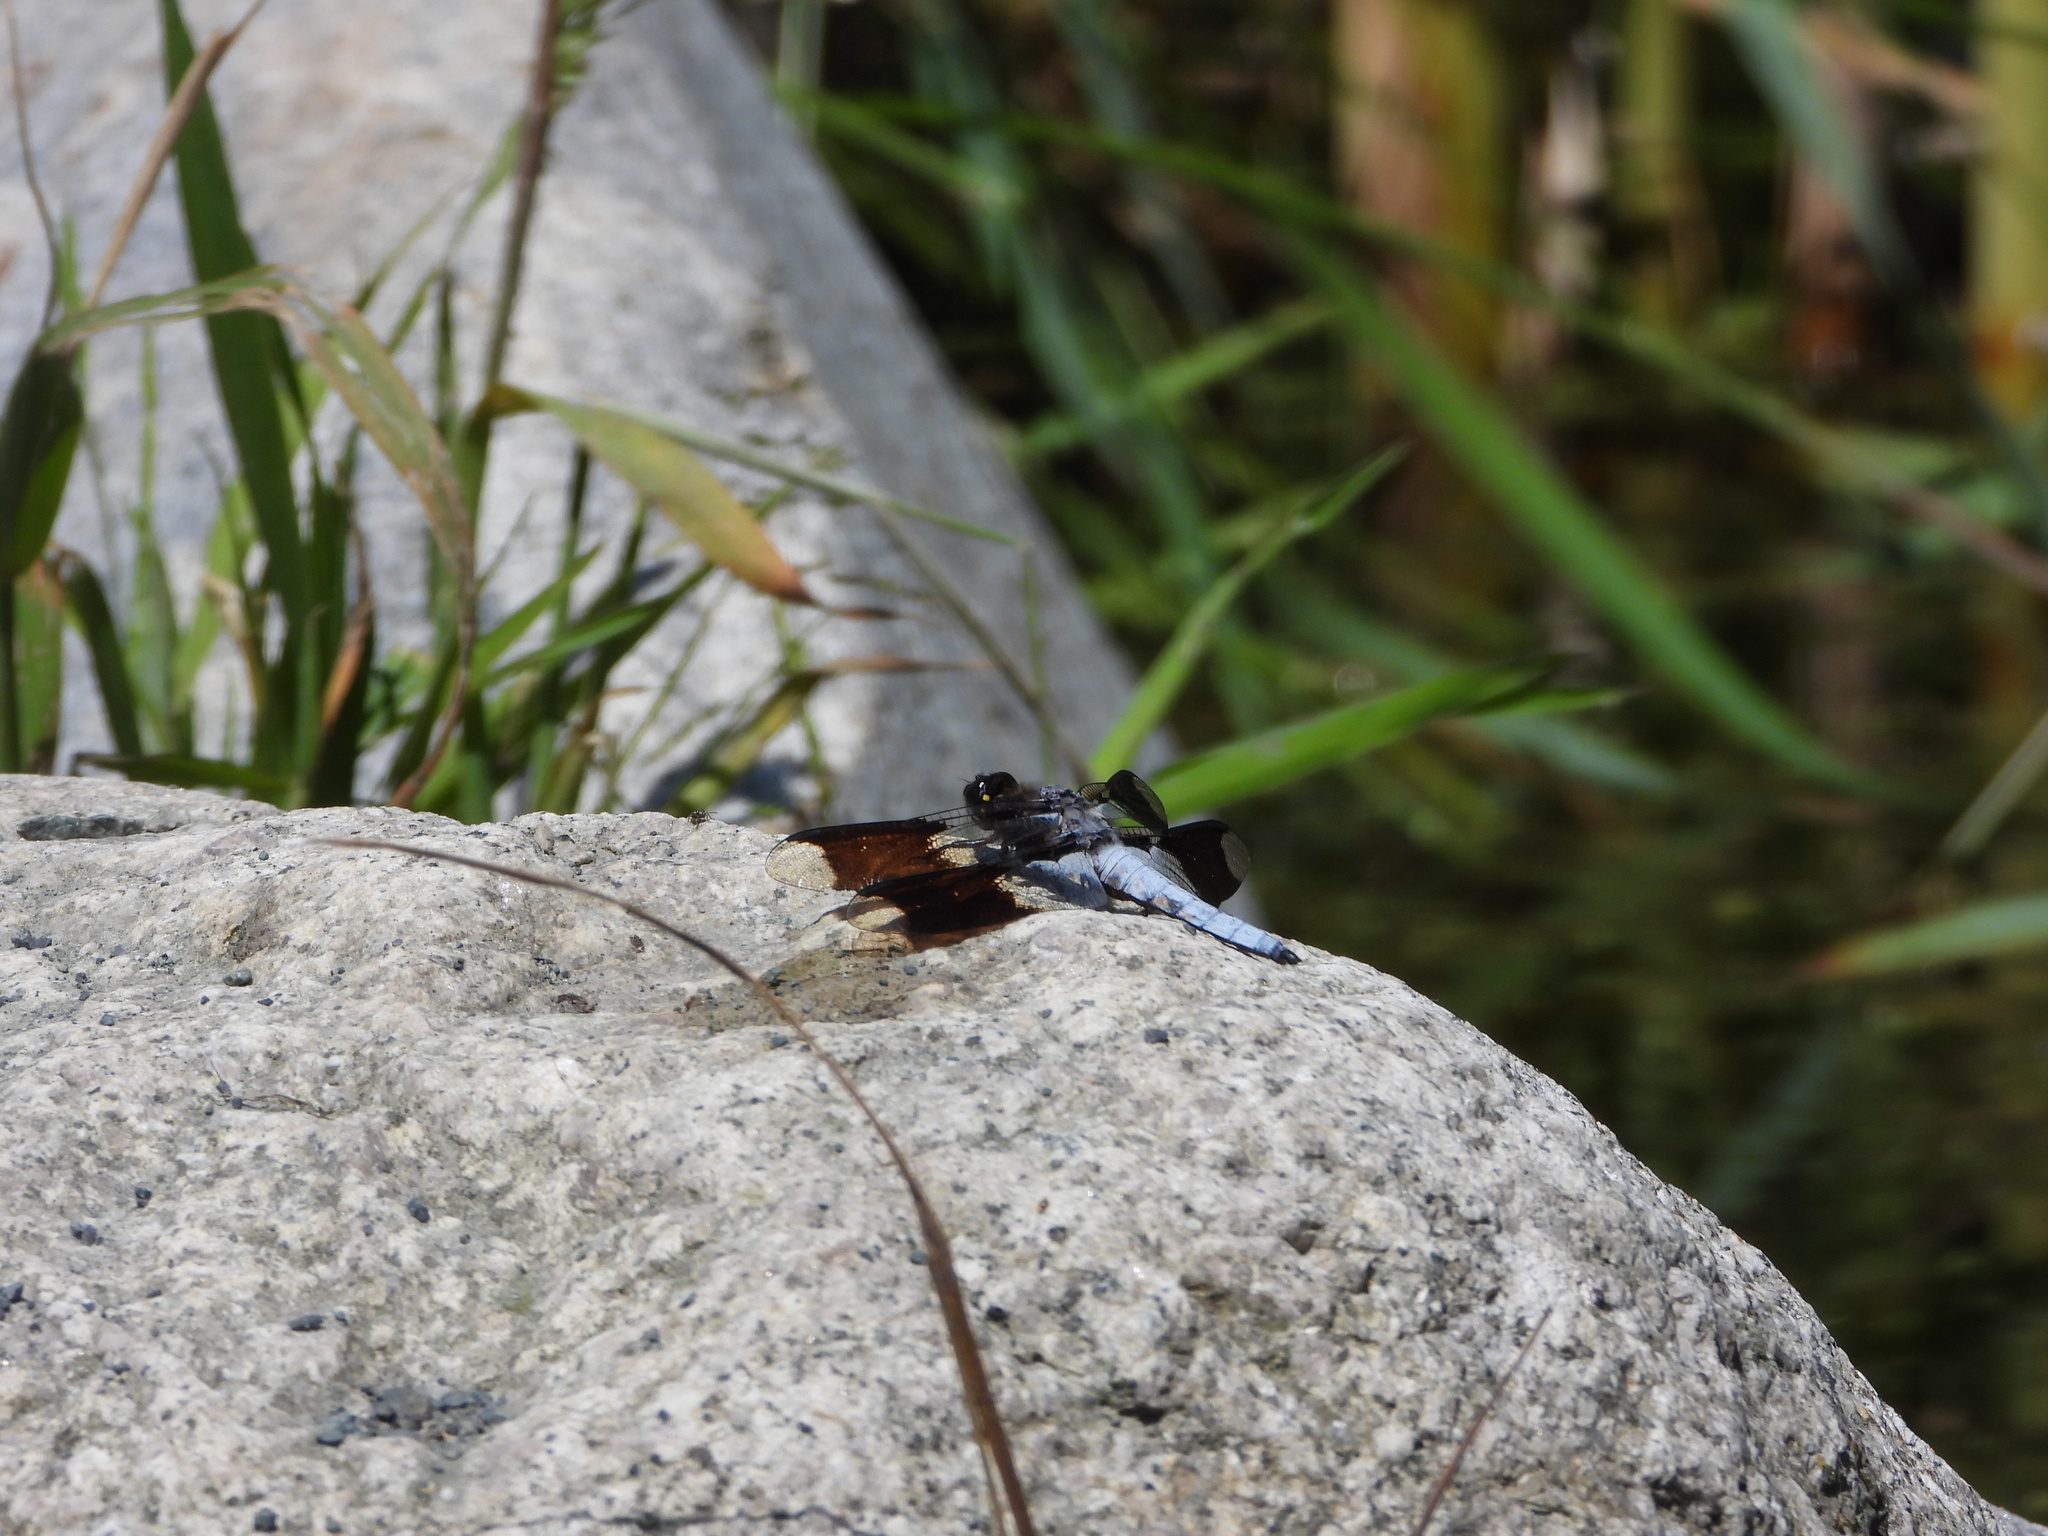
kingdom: Animalia
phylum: Arthropoda
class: Insecta
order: Odonata
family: Libellulidae
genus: Plathemis
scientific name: Plathemis lydia
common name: Common whitetail
